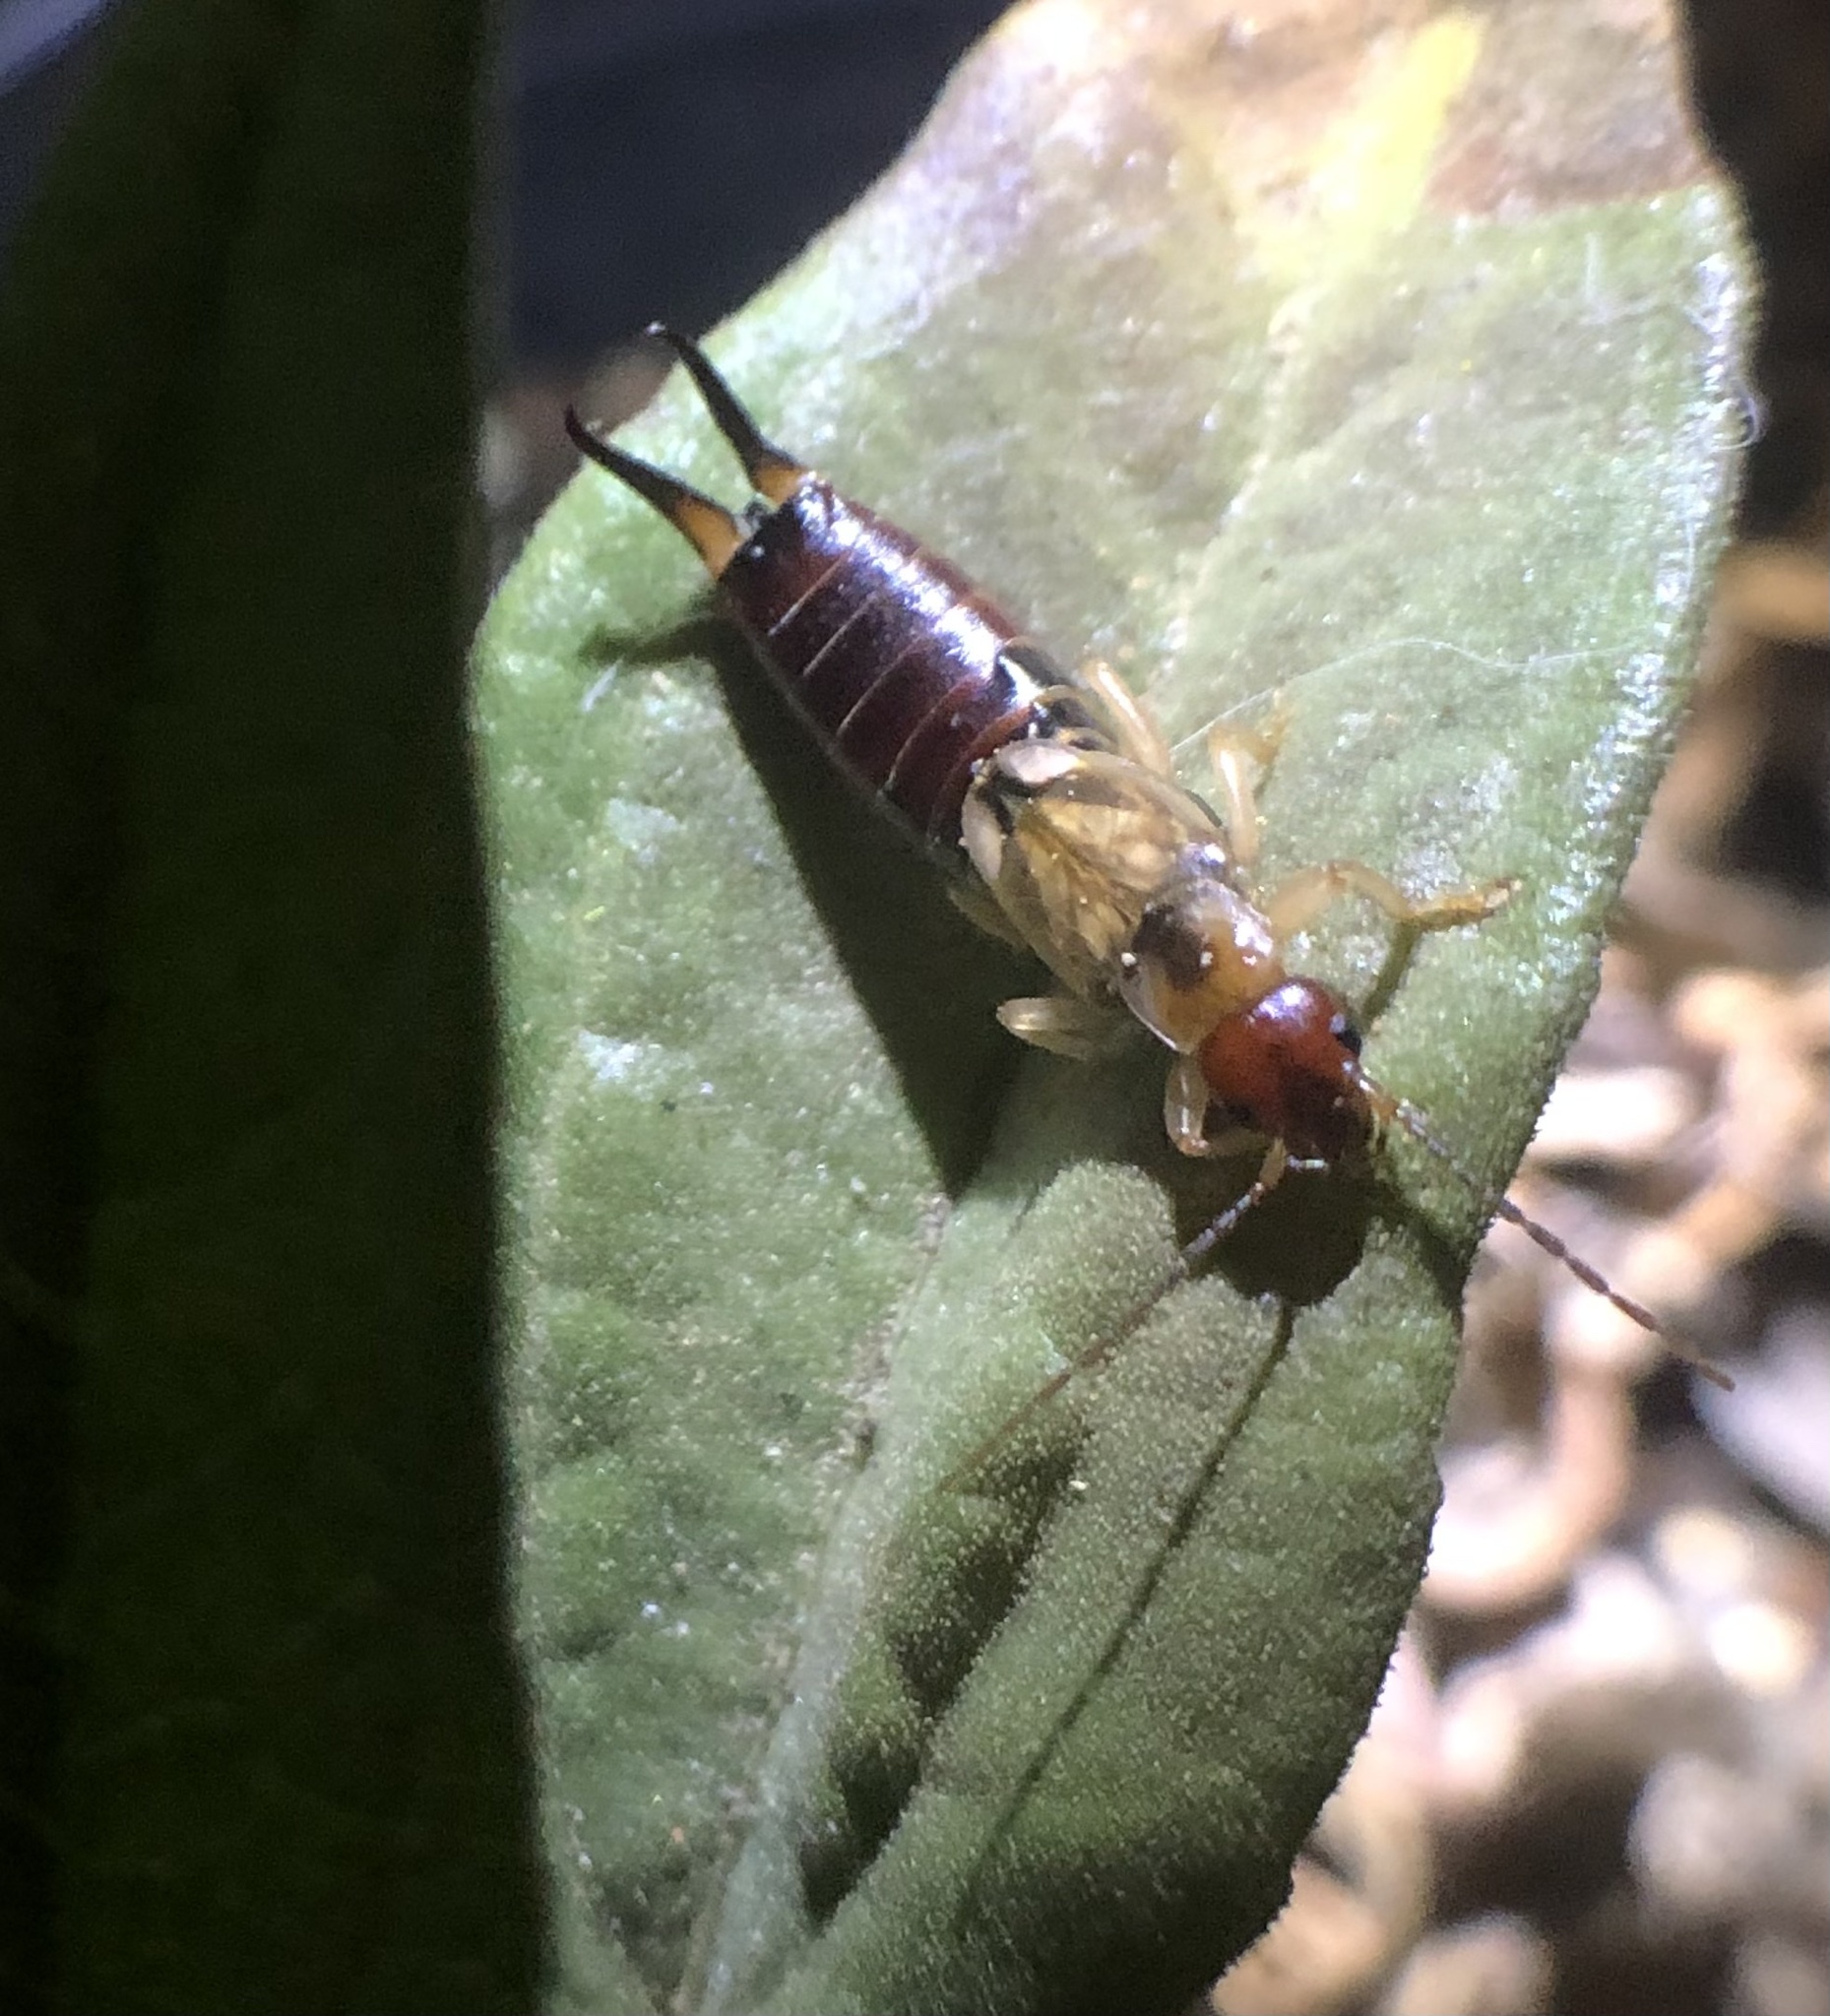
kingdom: Animalia
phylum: Arthropoda
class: Insecta
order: Dermaptera
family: Forficulidae
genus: Forficula
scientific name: Forficula
